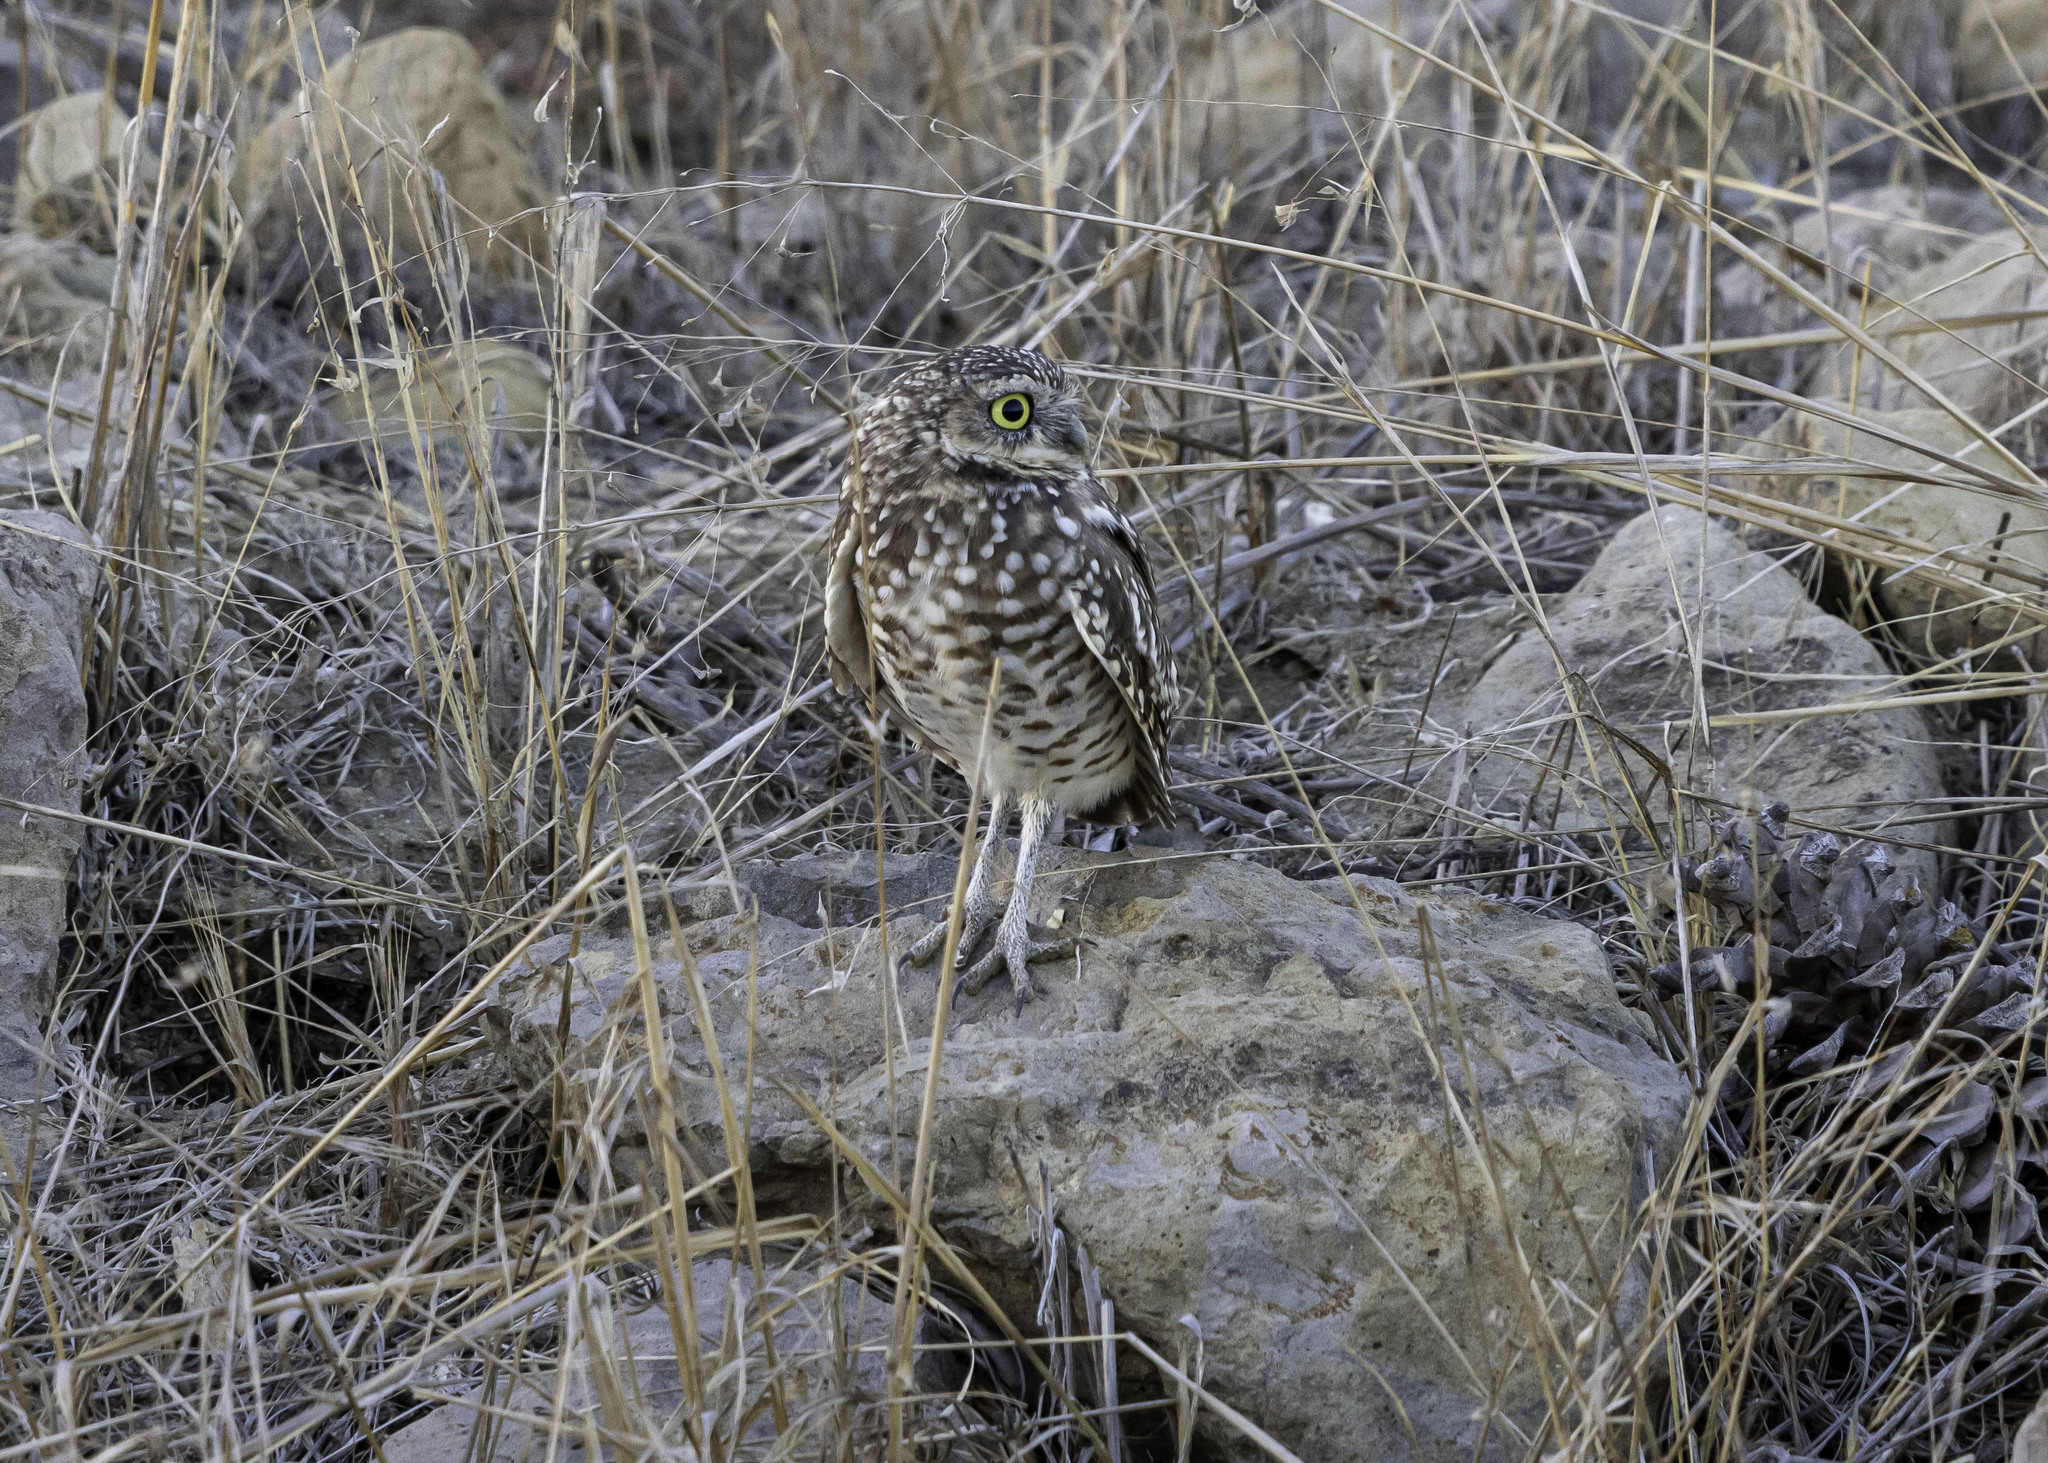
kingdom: Animalia
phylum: Chordata
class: Aves
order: Strigiformes
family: Strigidae
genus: Athene
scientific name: Athene cunicularia
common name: Burrowing owl
